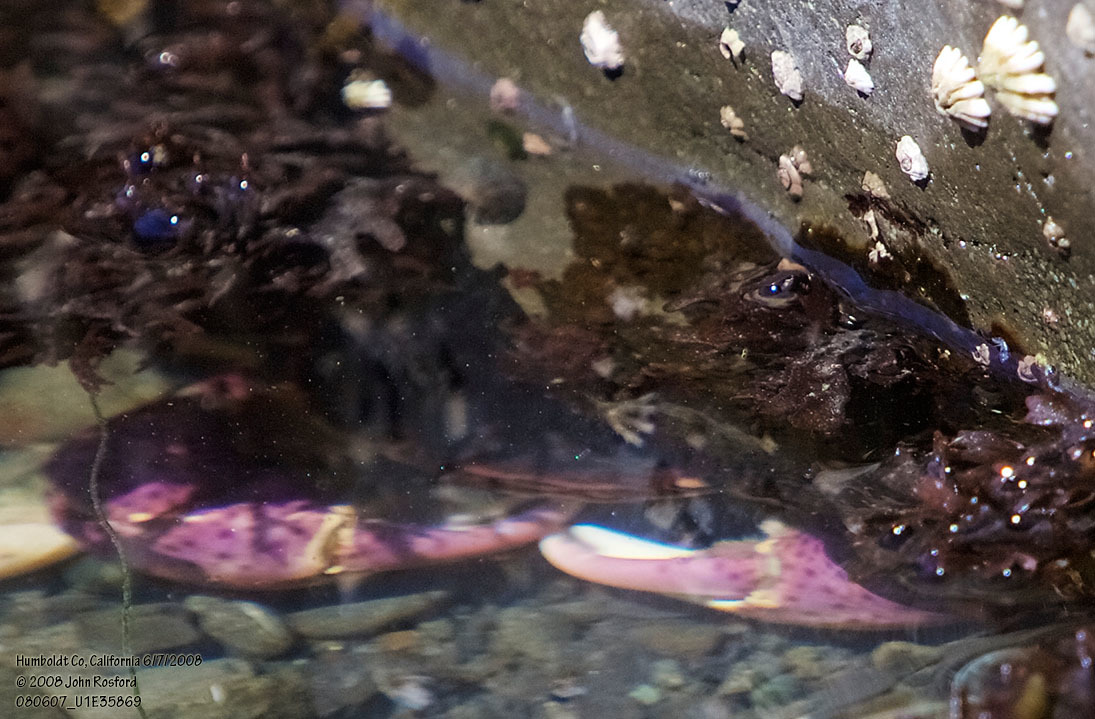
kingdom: Animalia
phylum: Arthropoda
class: Malacostraca
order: Decapoda
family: Varunidae
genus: Hemigrapsus
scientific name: Hemigrapsus nudus
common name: Purple shore crab
